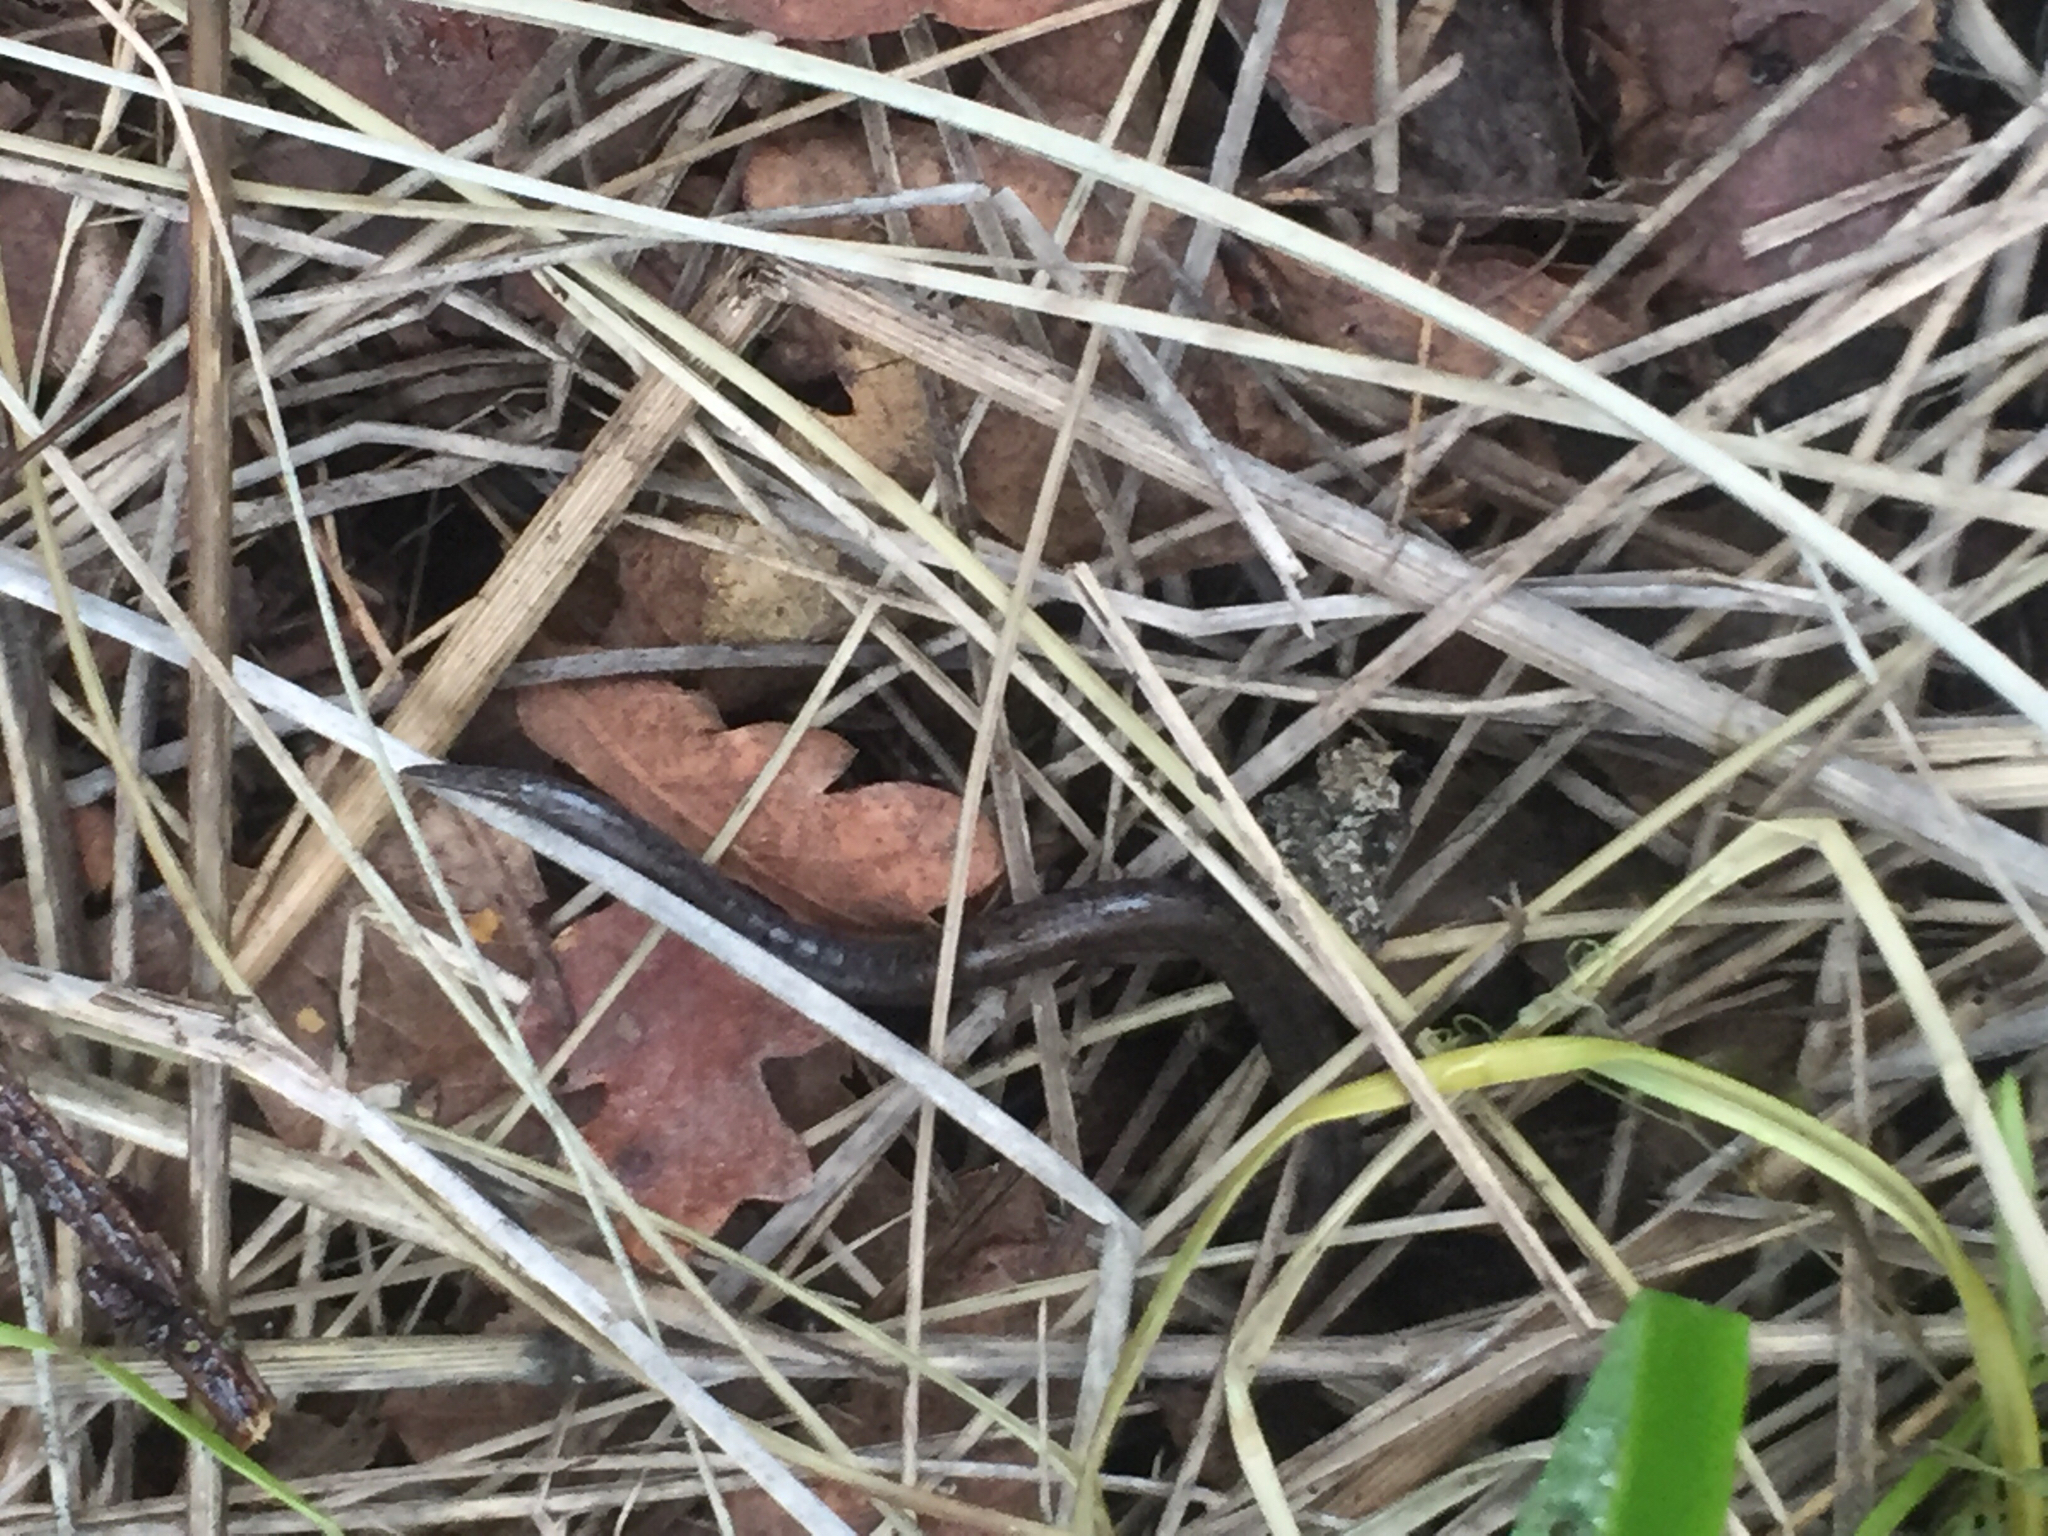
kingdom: Animalia
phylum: Chordata
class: Amphibia
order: Caudata
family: Plethodontidae
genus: Batrachoseps
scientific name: Batrachoseps attenuatus
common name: California slender salamander
